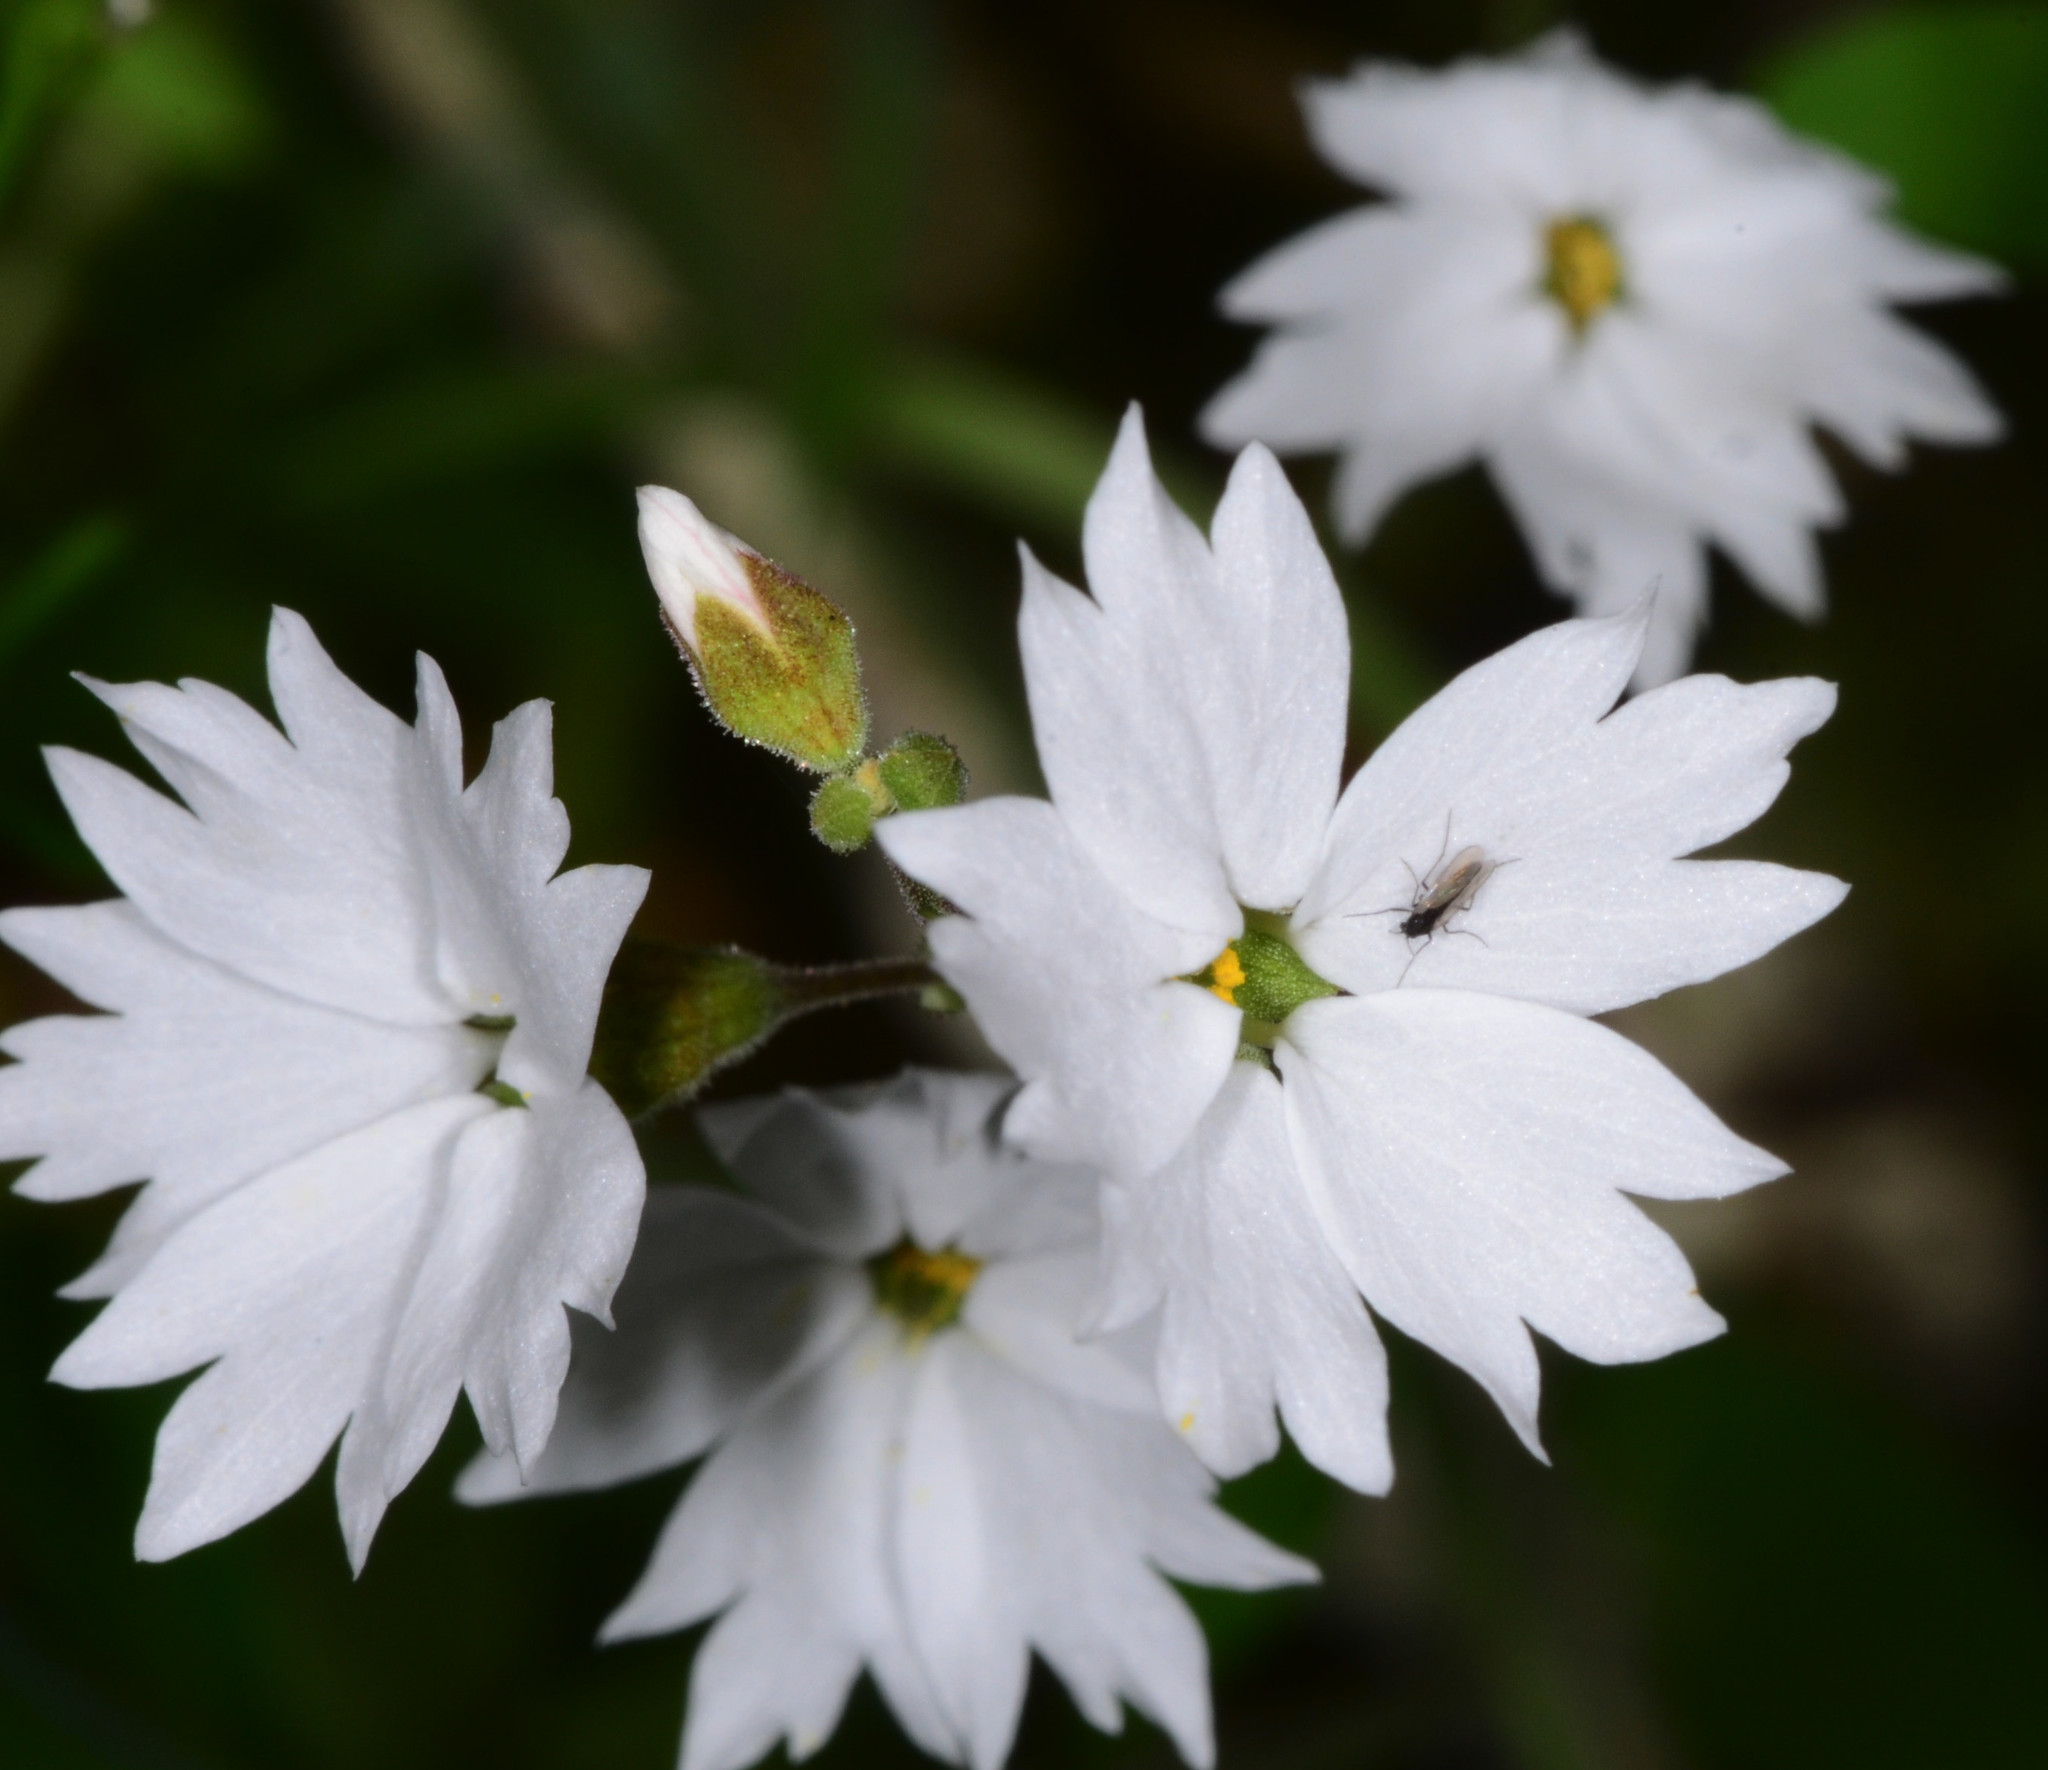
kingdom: Plantae
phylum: Tracheophyta
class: Magnoliopsida
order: Saxifragales
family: Saxifragaceae
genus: Lithophragma
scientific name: Lithophragma affine
